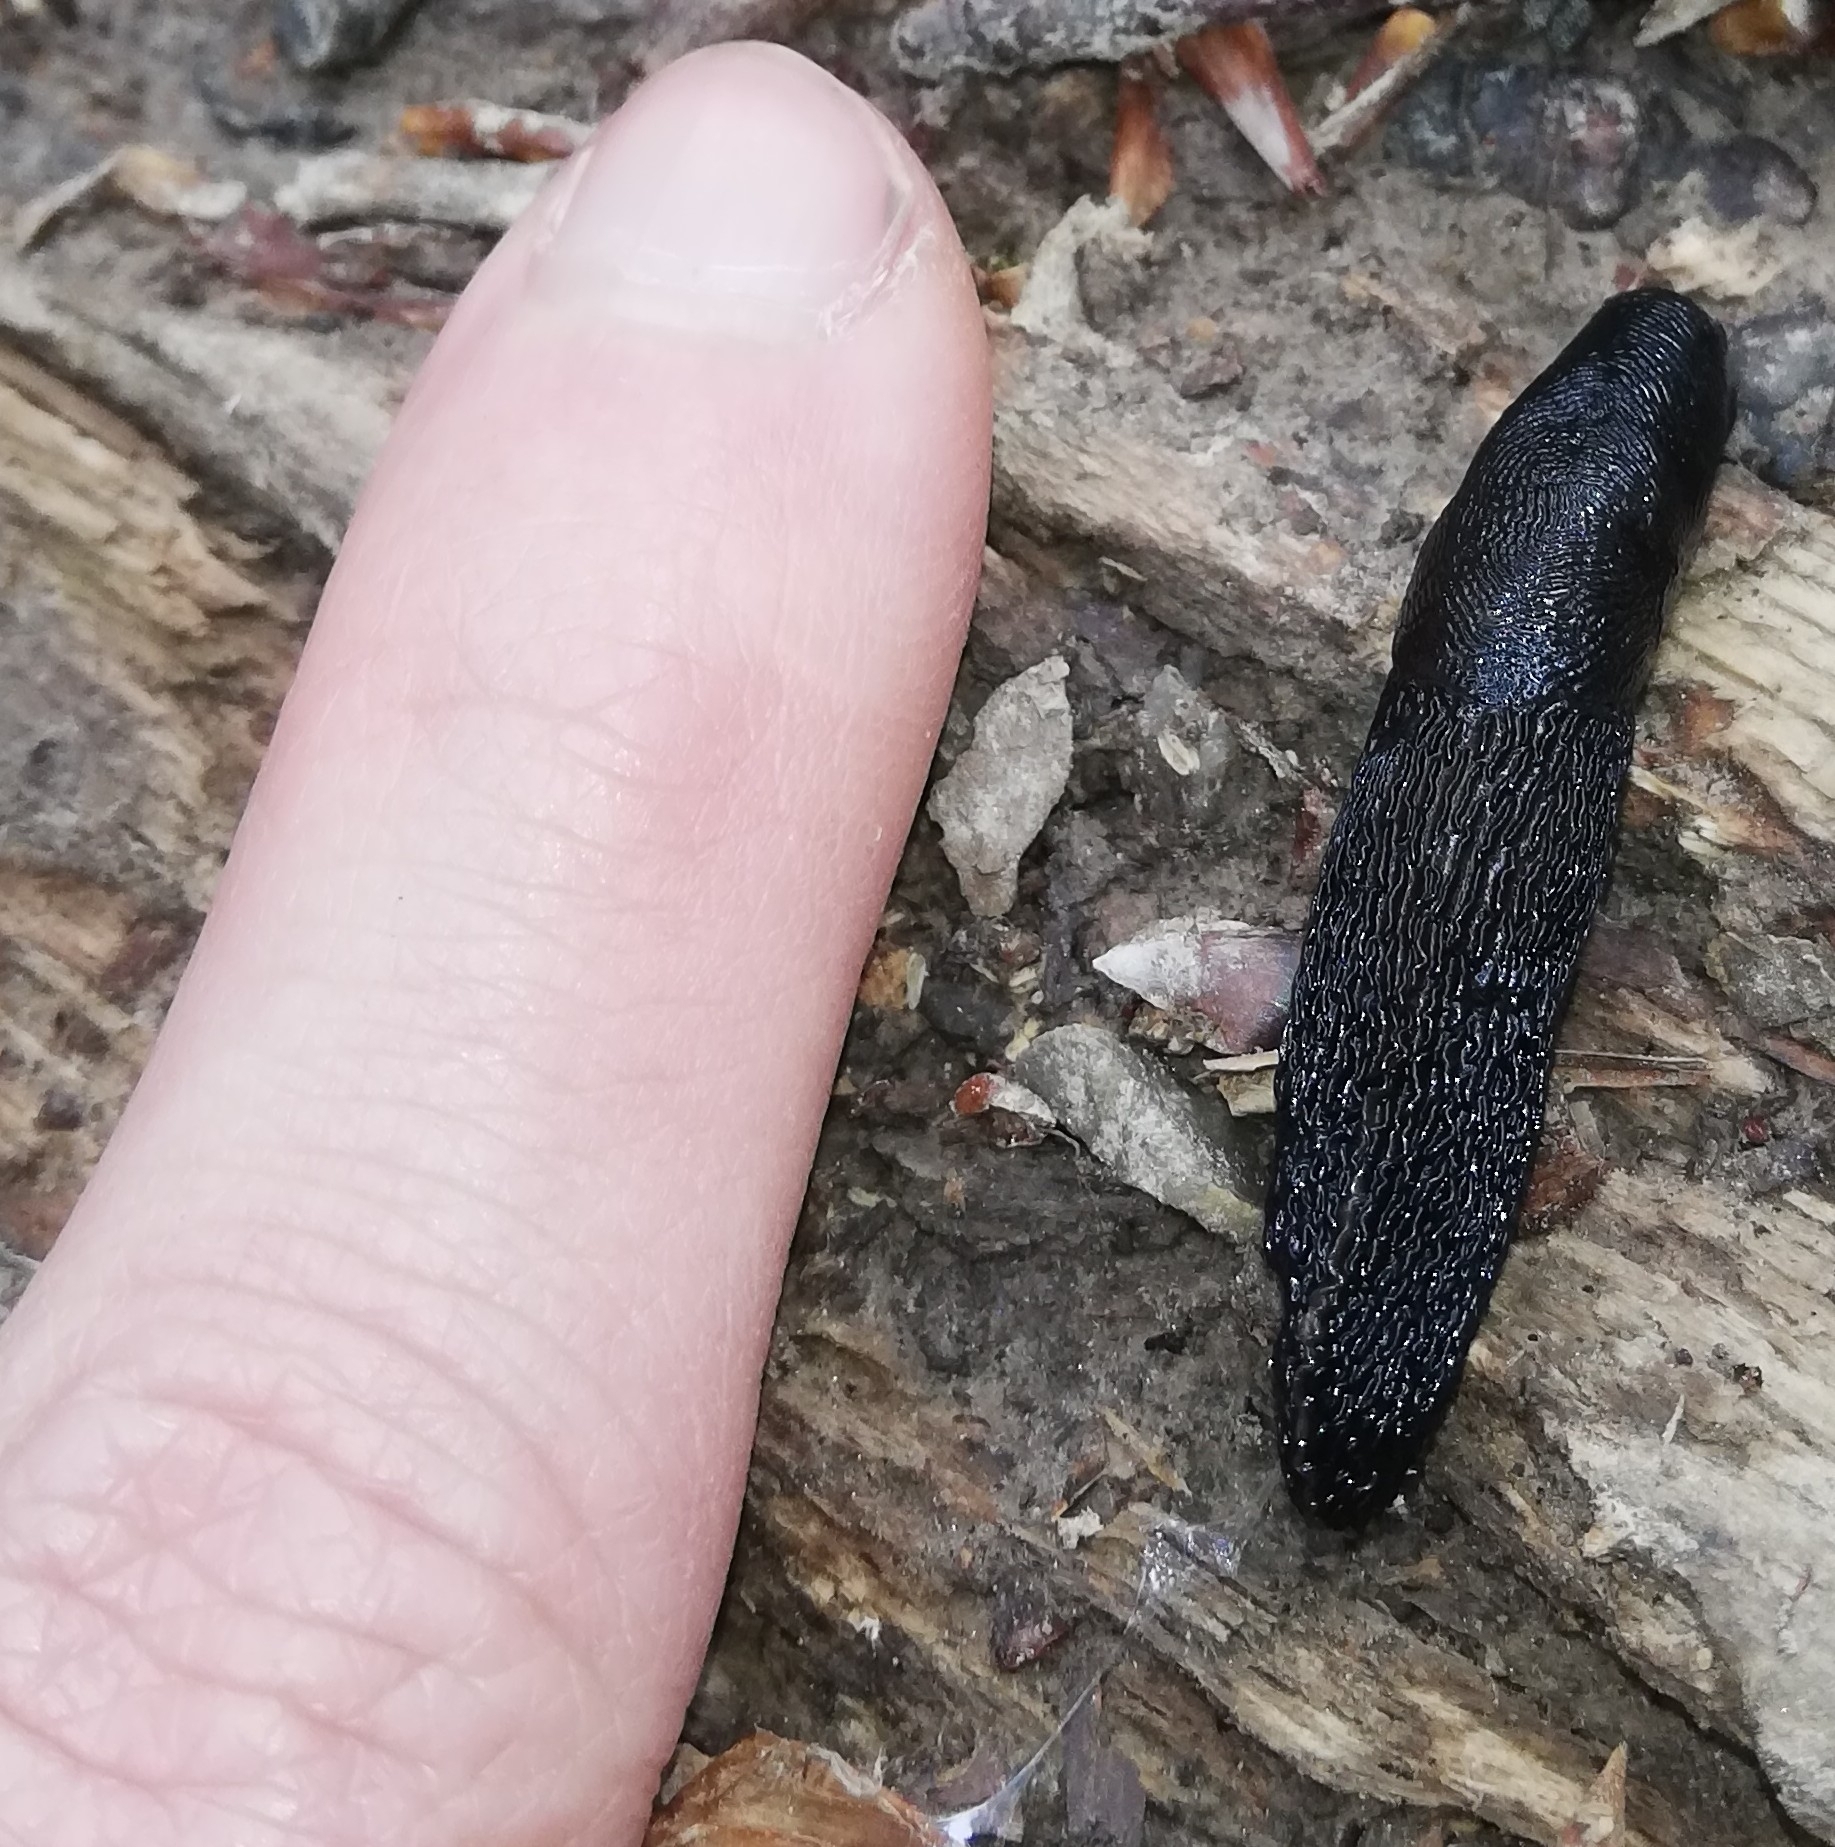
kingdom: Animalia
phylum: Mollusca
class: Gastropoda
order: Stylommatophora
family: Limacidae
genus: Limax
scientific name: Limax cinereoniger
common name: Ash-black slug
